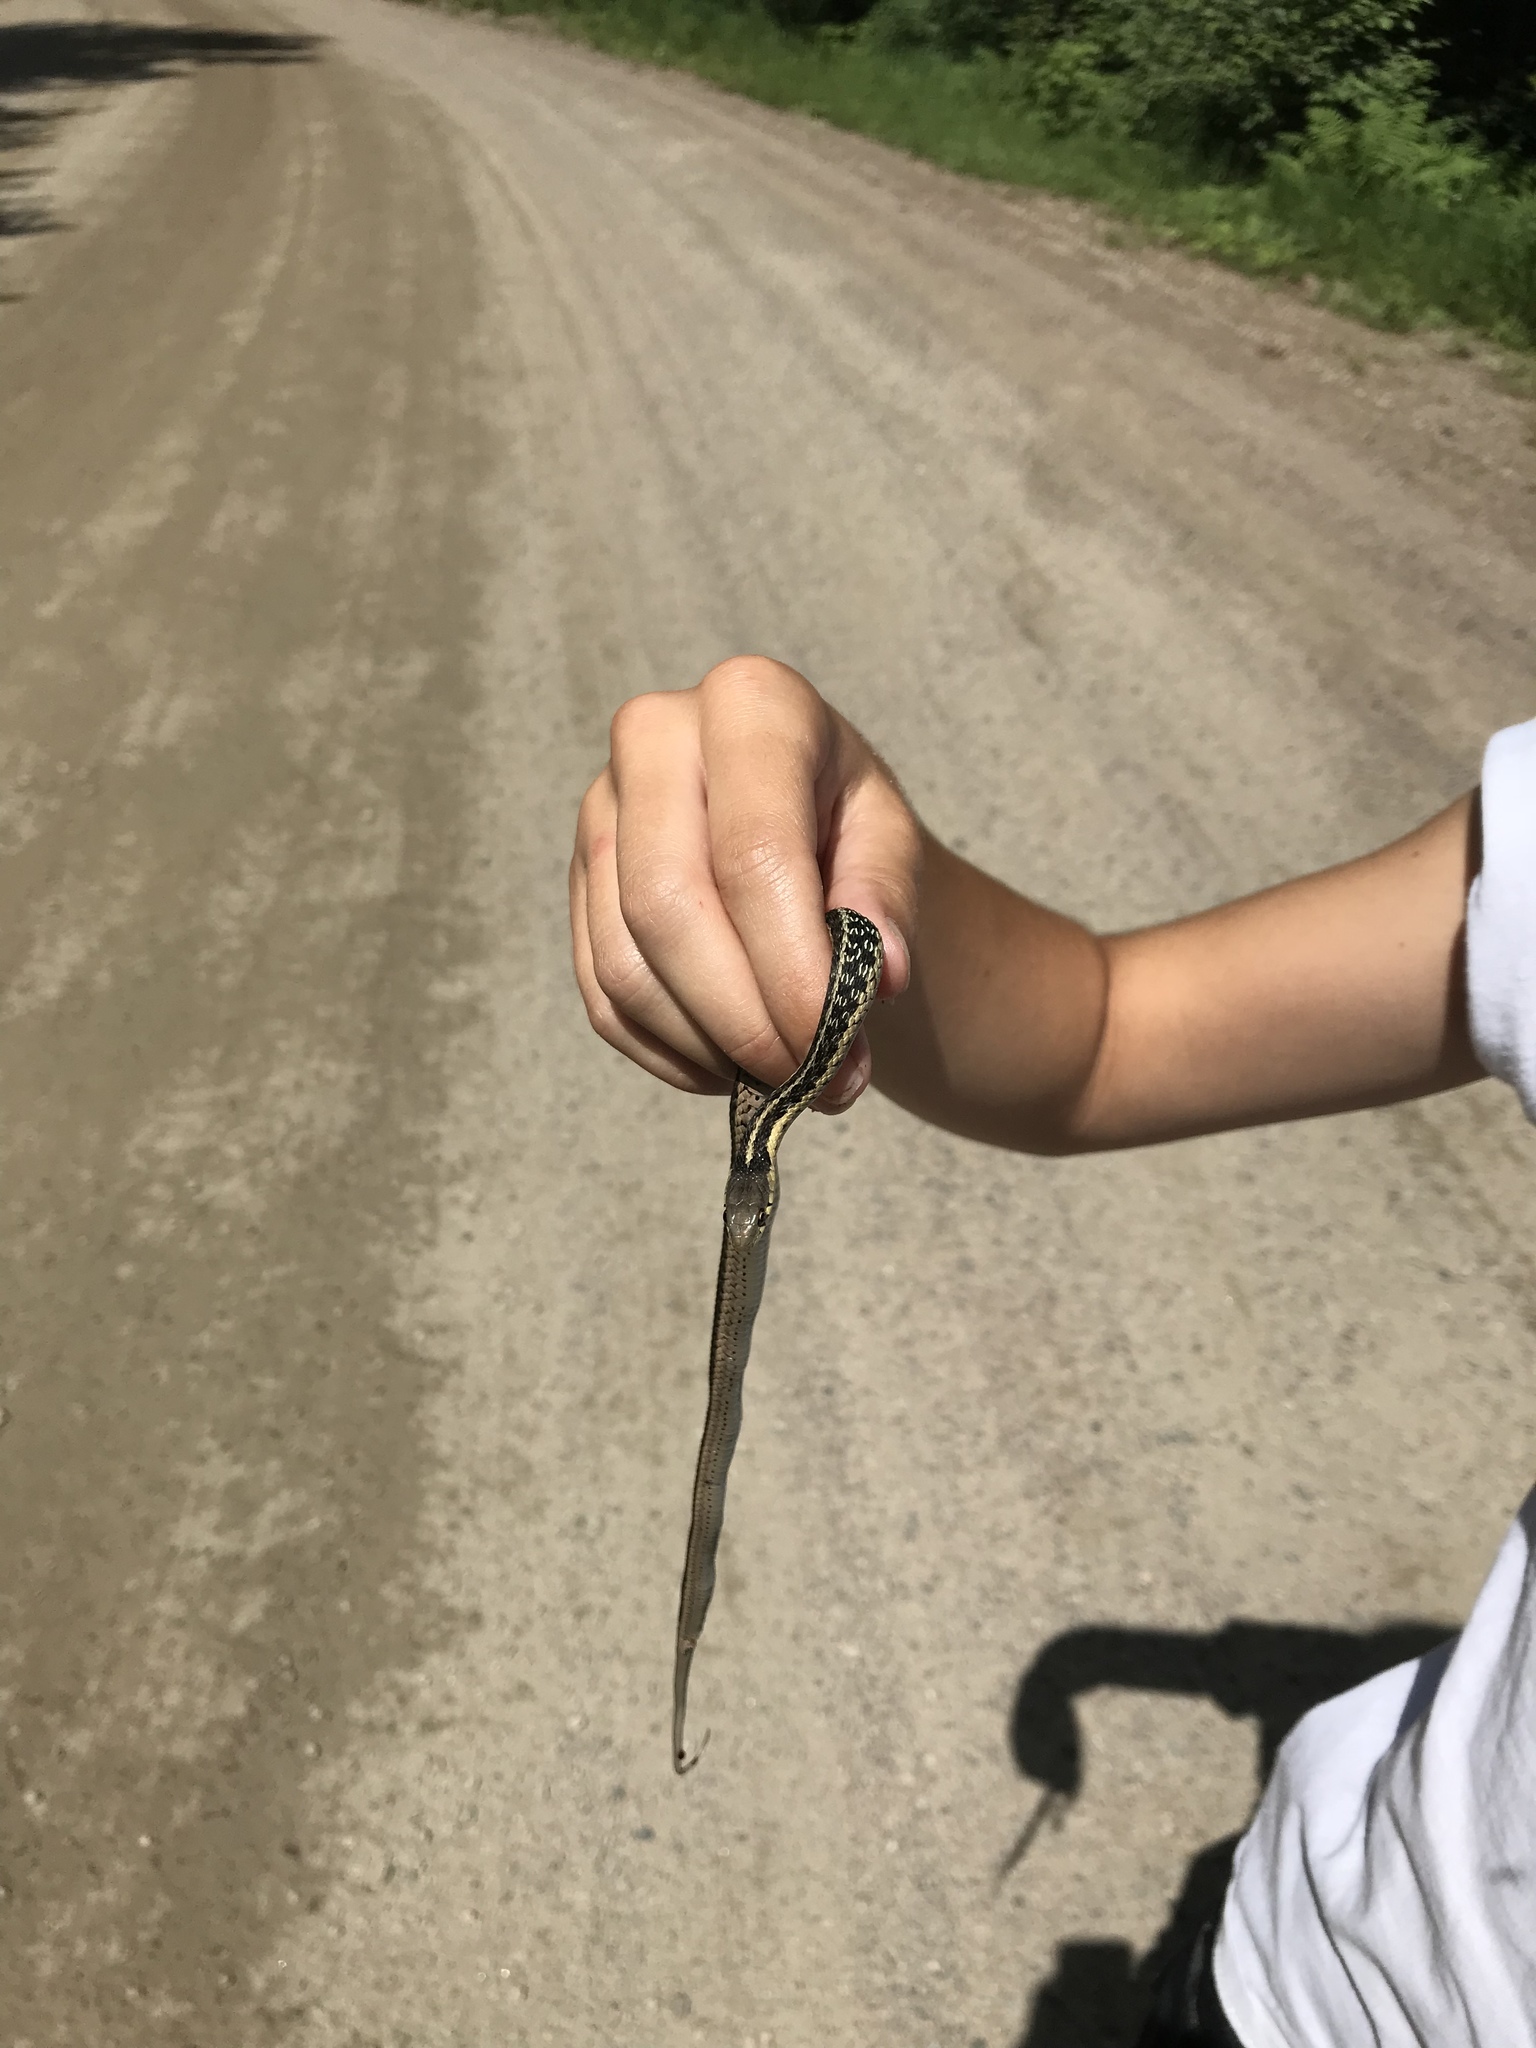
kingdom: Animalia
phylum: Chordata
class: Squamata
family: Colubridae
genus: Thamnophis
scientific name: Thamnophis sirtalis
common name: Common garter snake
